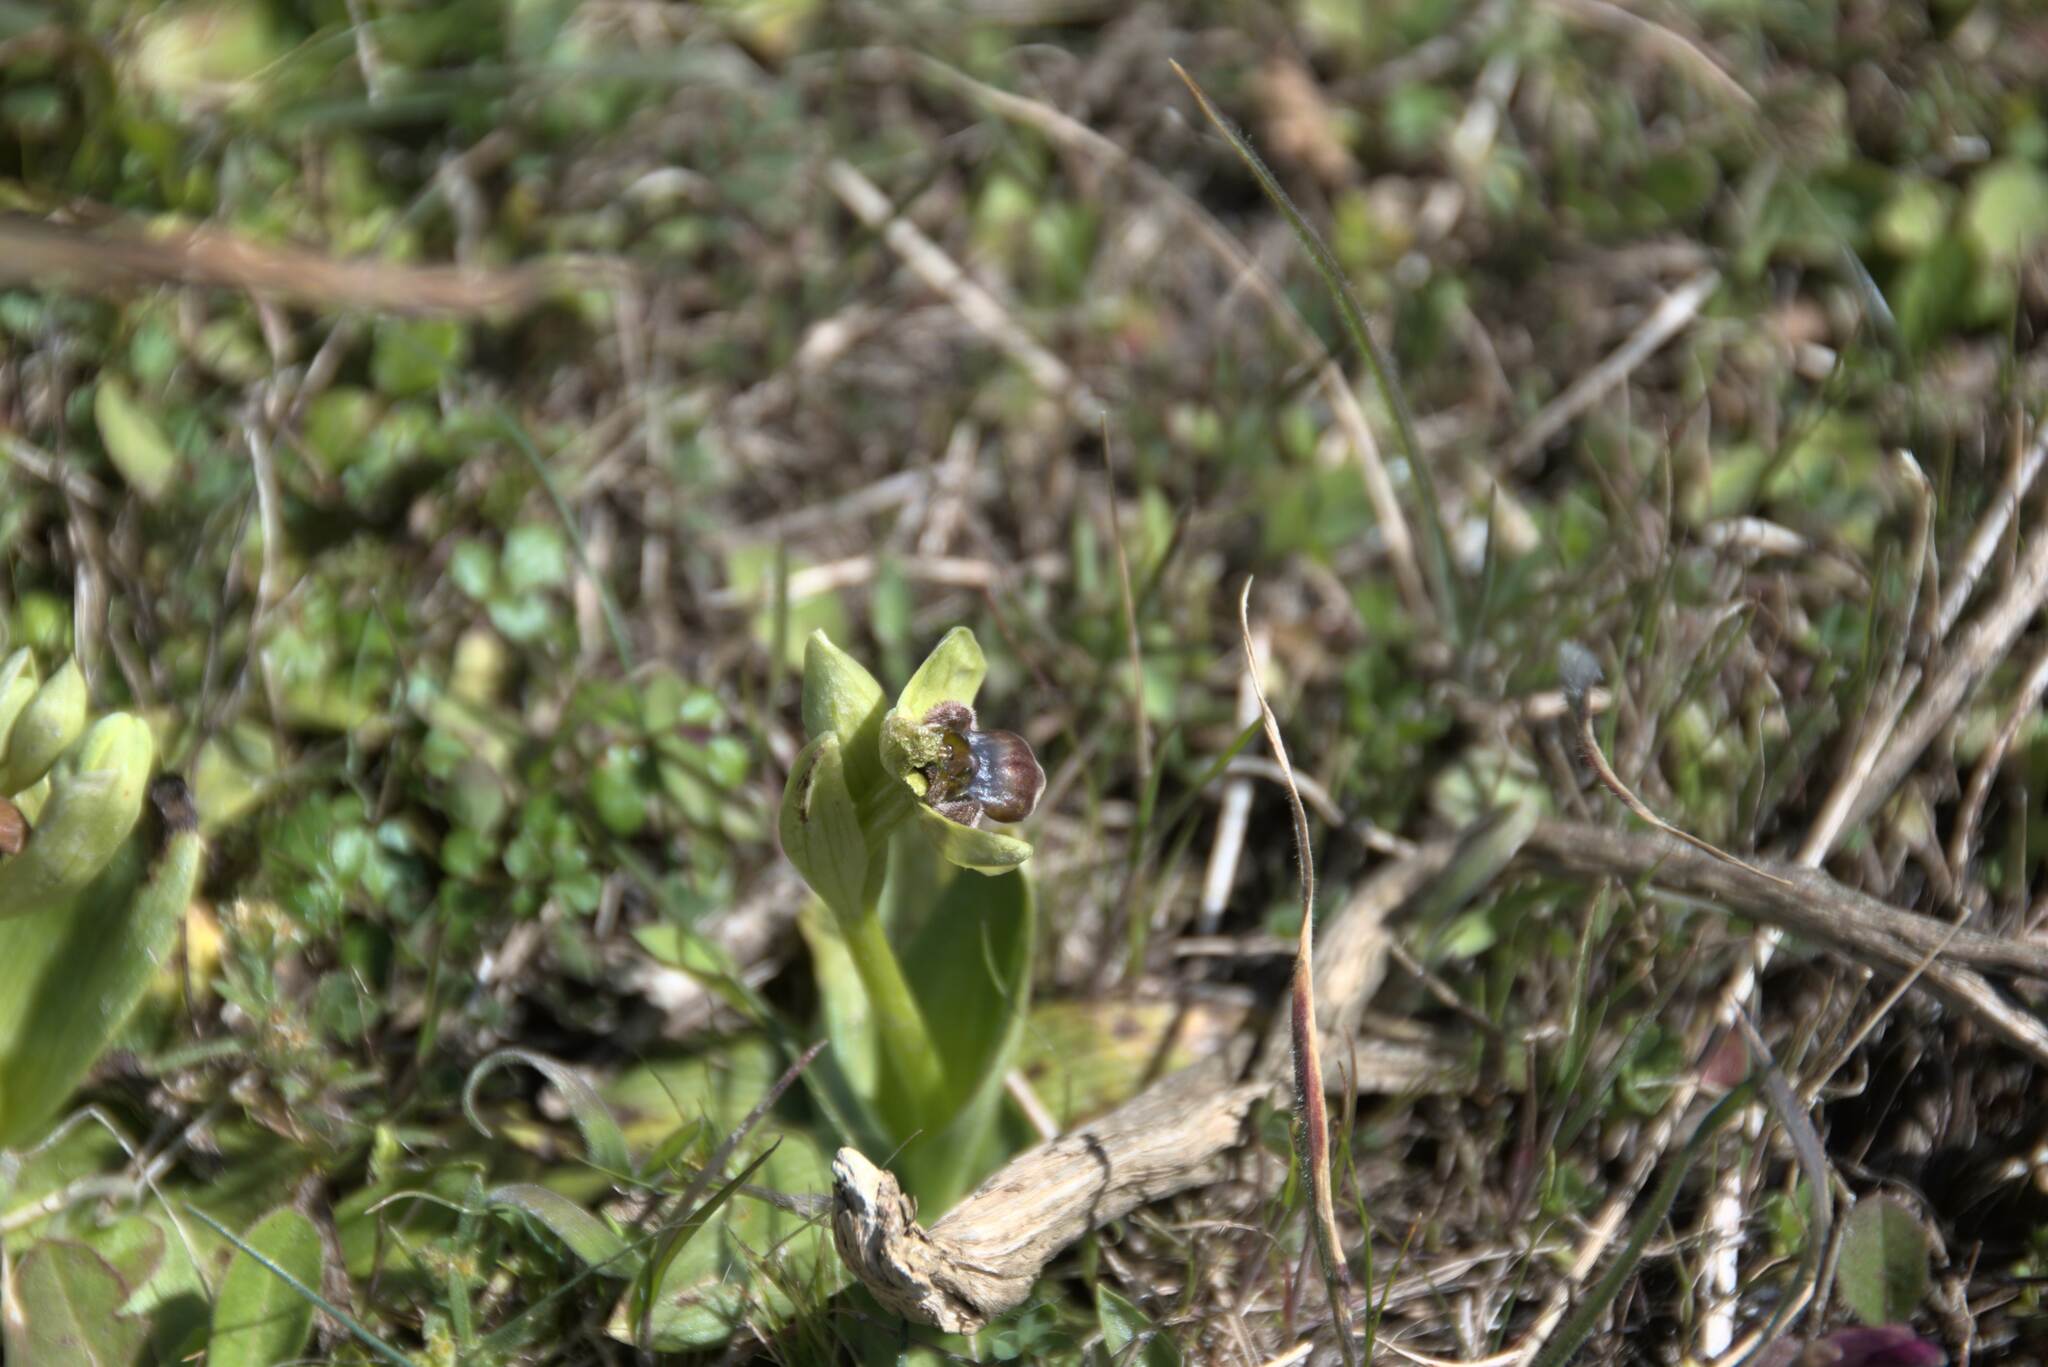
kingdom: Plantae
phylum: Tracheophyta
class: Liliopsida
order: Asparagales
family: Orchidaceae
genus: Ophrys
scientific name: Ophrys bombyliflora
